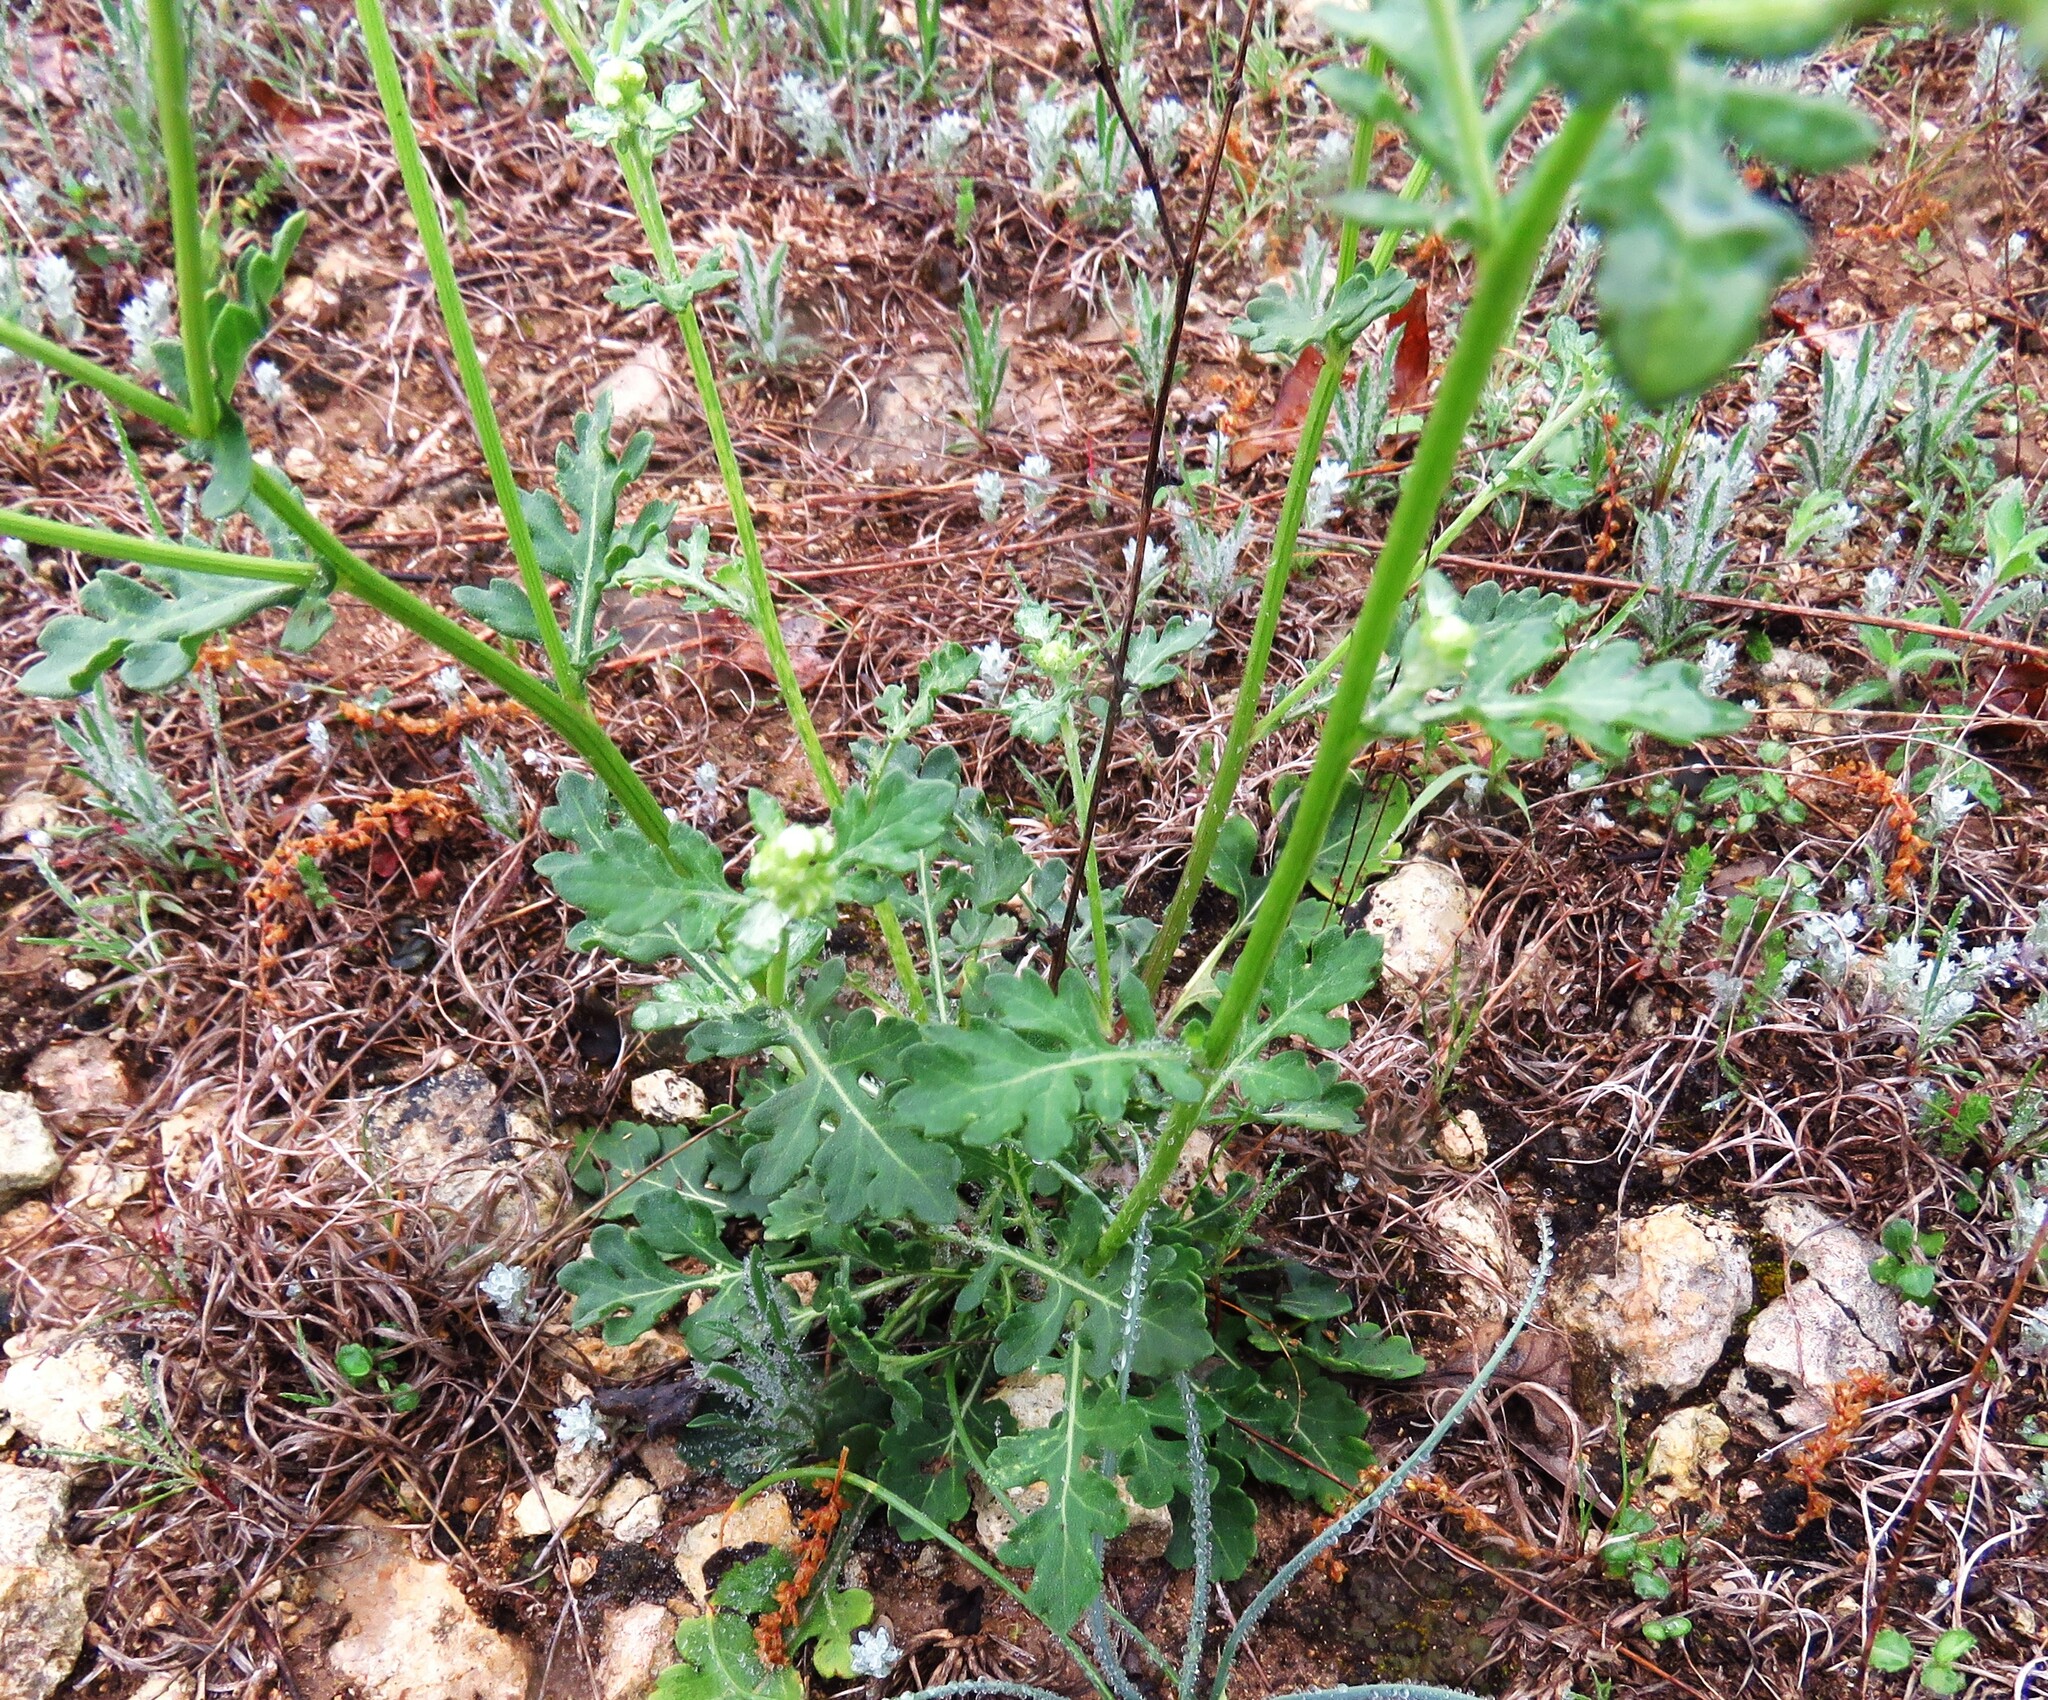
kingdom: Plantae
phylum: Tracheophyta
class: Magnoliopsida
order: Asterales
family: Asteraceae
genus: Parthenium
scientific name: Parthenium hysterophorus
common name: Santa maria feverfew
